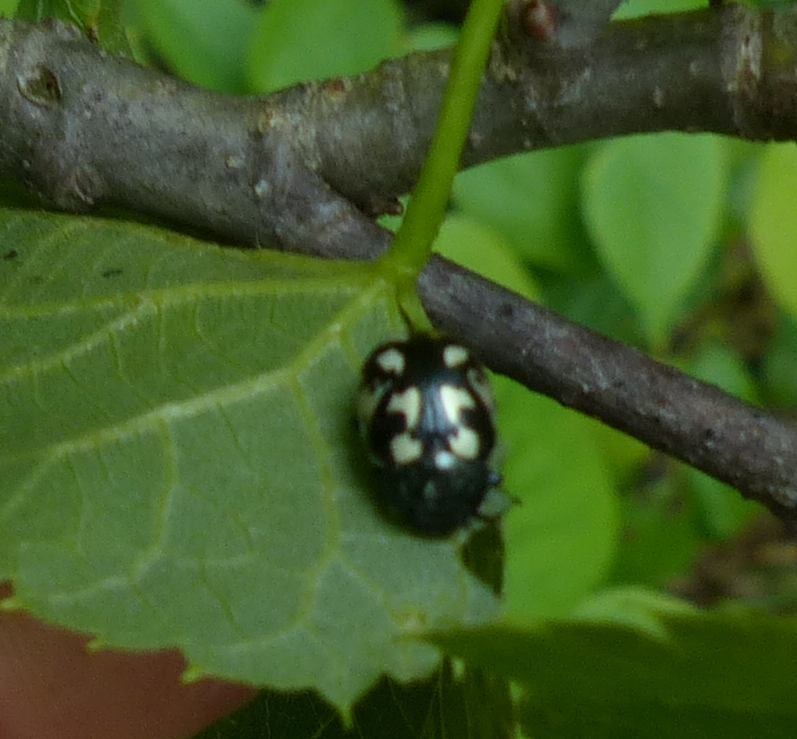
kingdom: Animalia
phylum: Arthropoda
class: Insecta
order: Coleoptera
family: Chrysomelidae
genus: Calligrapha
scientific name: Calligrapha pnirsa
